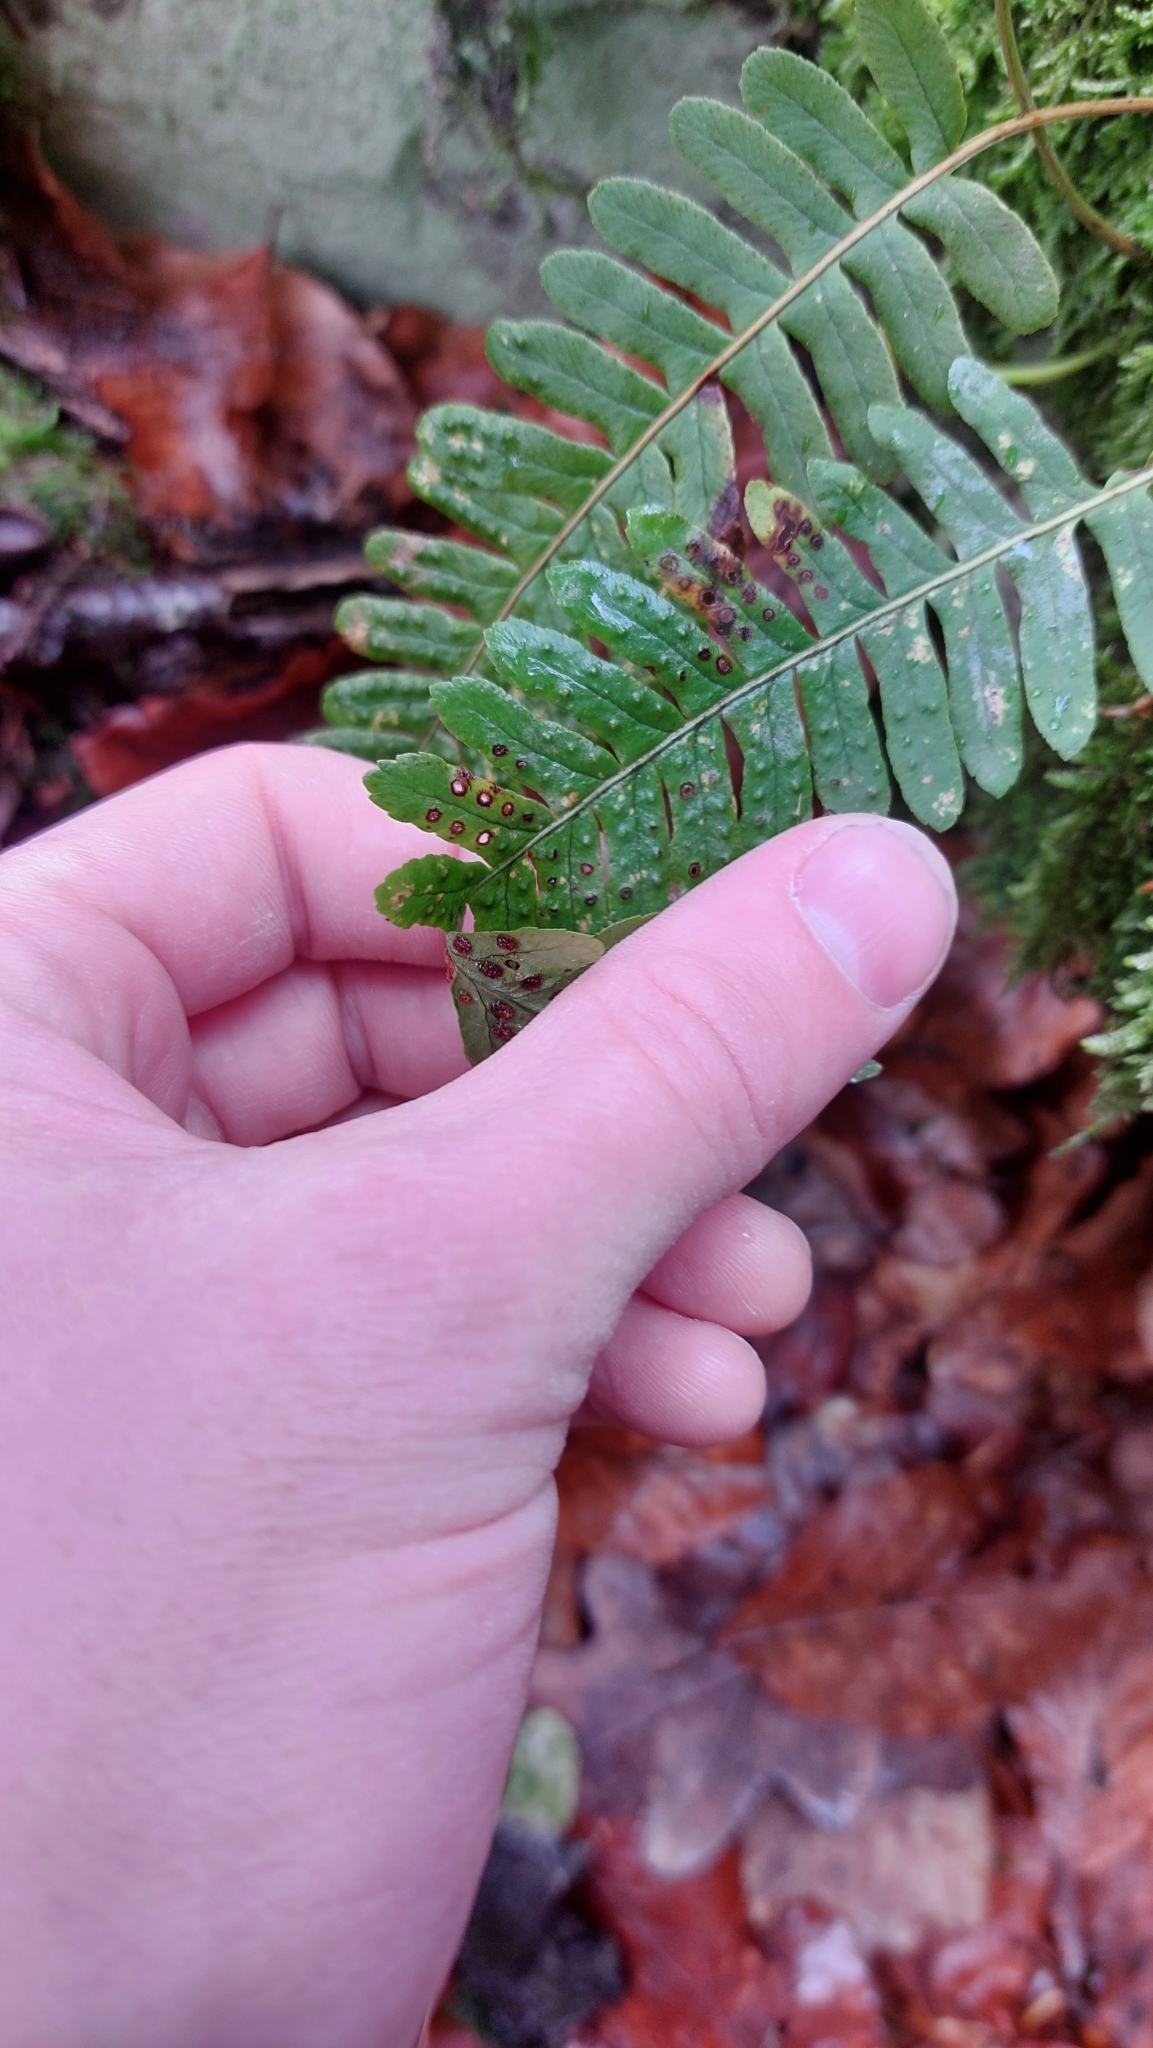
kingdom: Plantae
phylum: Tracheophyta
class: Polypodiopsida
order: Polypodiales
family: Polypodiaceae
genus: Polypodium
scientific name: Polypodium vulgare
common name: Common polypody
